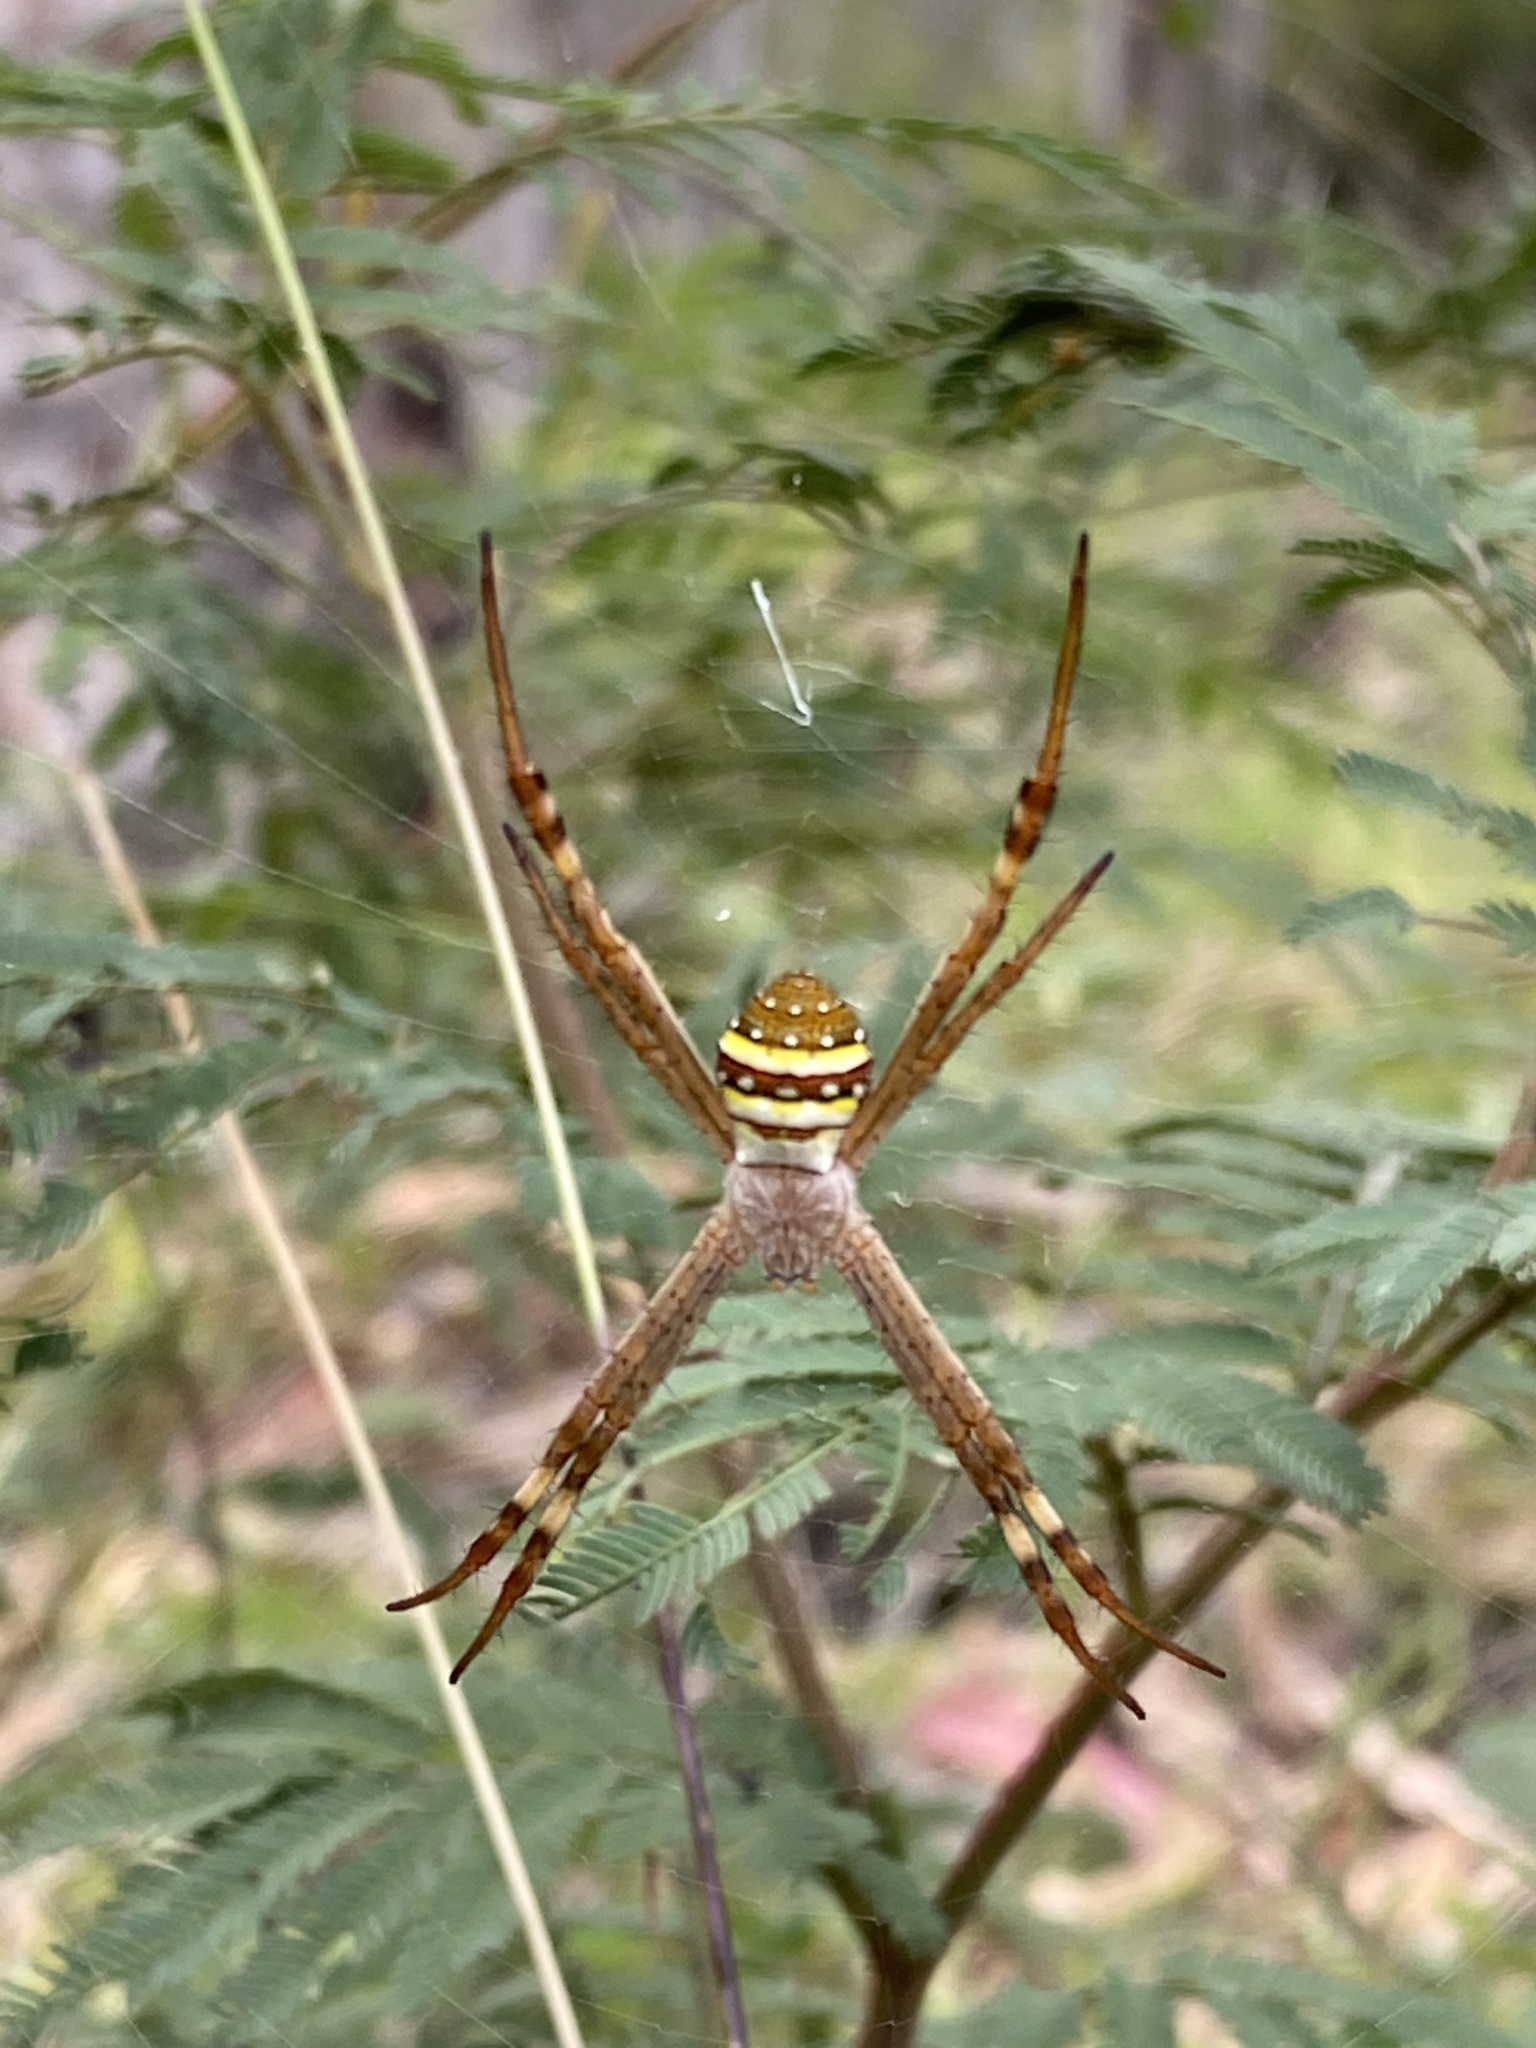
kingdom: Animalia
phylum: Arthropoda
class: Arachnida
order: Araneae
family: Araneidae
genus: Argiope
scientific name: Argiope keyserlingi
